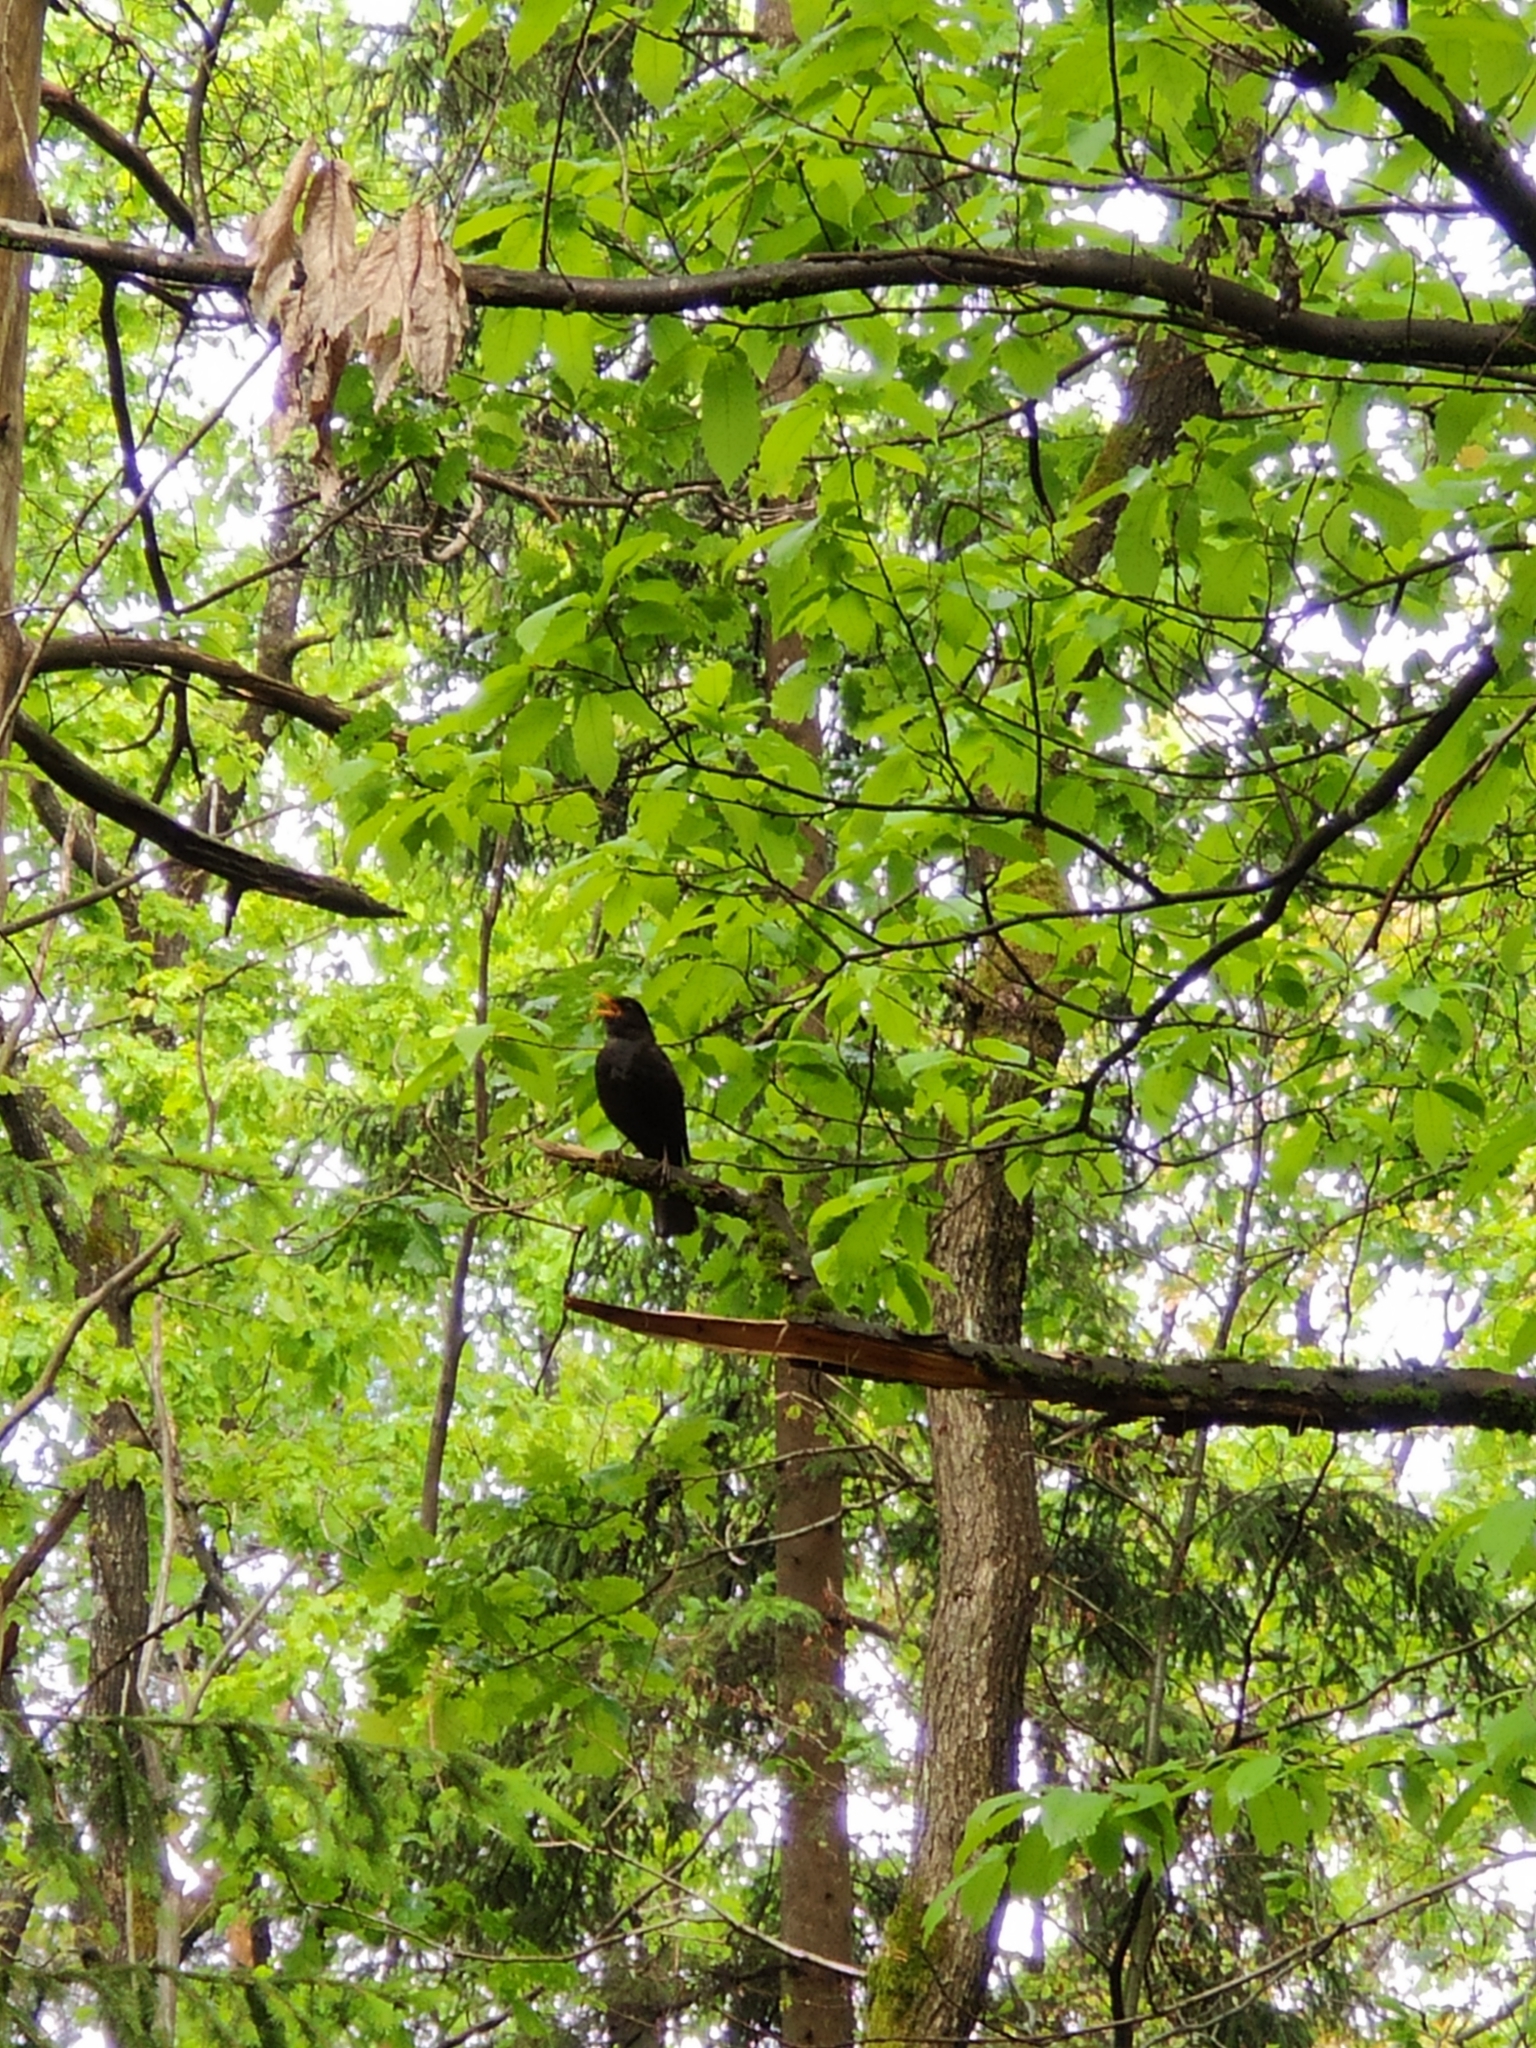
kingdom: Animalia
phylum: Chordata
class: Aves
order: Passeriformes
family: Turdidae
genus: Turdus
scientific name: Turdus merula
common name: Common blackbird
